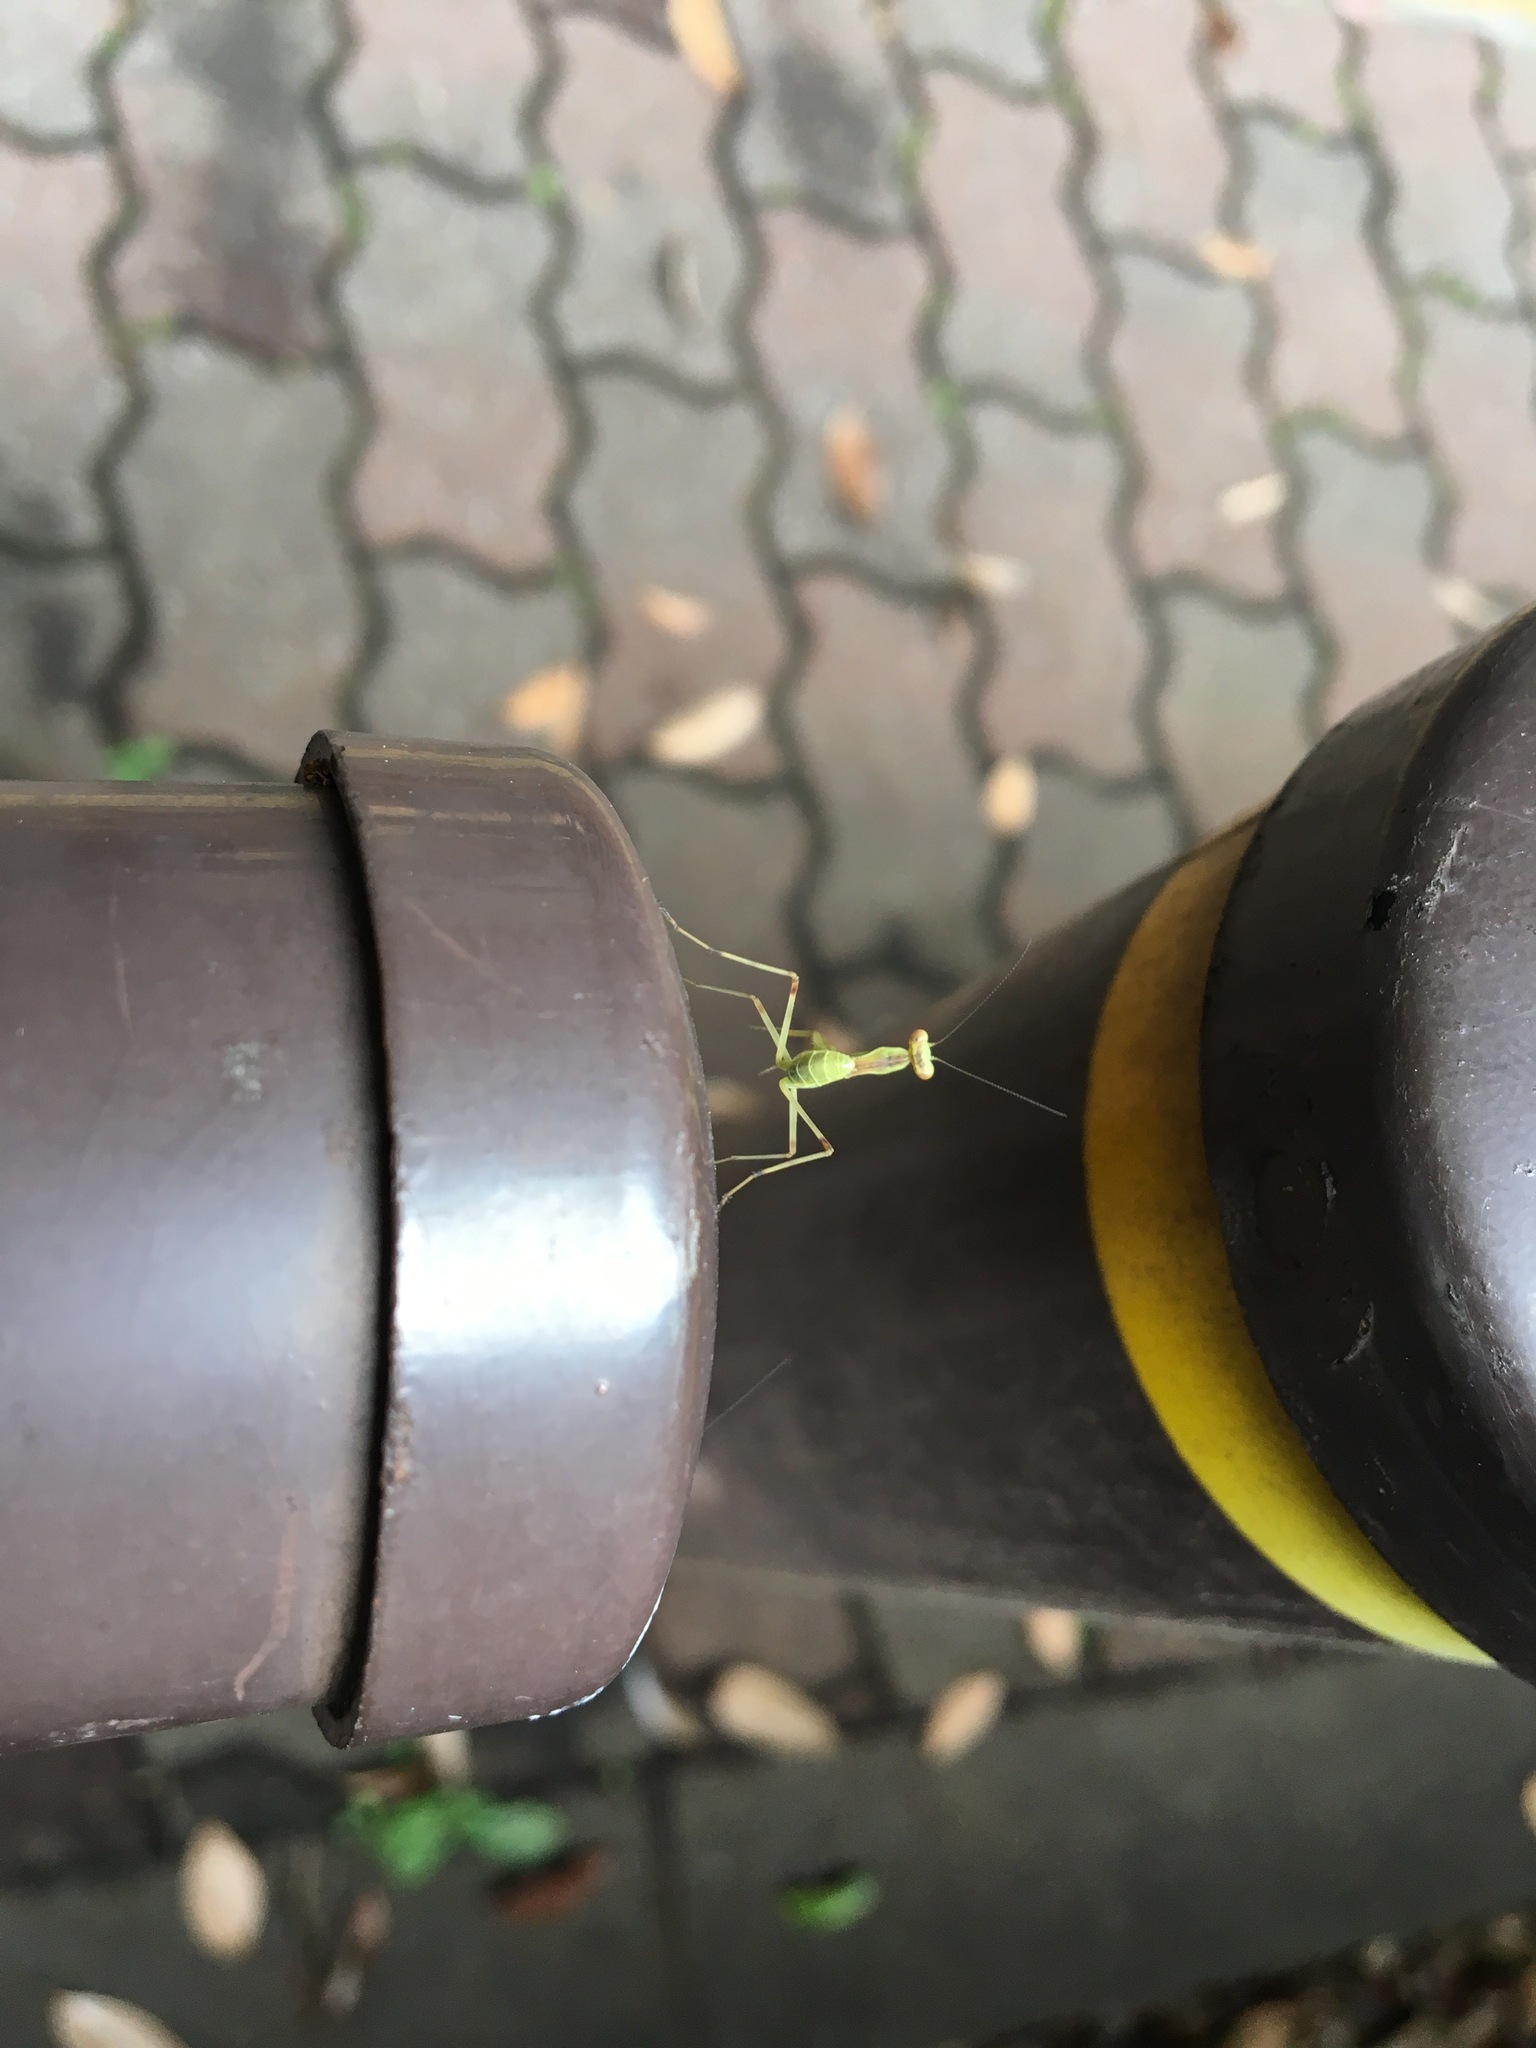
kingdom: Animalia
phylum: Arthropoda
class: Insecta
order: Mantodea
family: Mantidae
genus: Hierodula
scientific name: Hierodula patellifera
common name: Asian mantis
